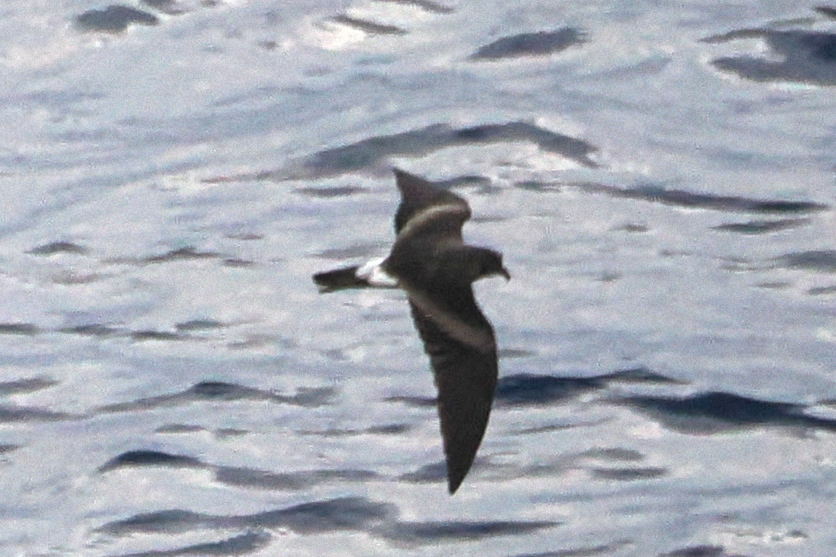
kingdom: Animalia
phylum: Chordata
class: Aves
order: Procellariiformes
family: Hydrobatidae
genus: Oceanodroma
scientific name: Oceanodroma leucorhoa
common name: Leach's storm-petrel
